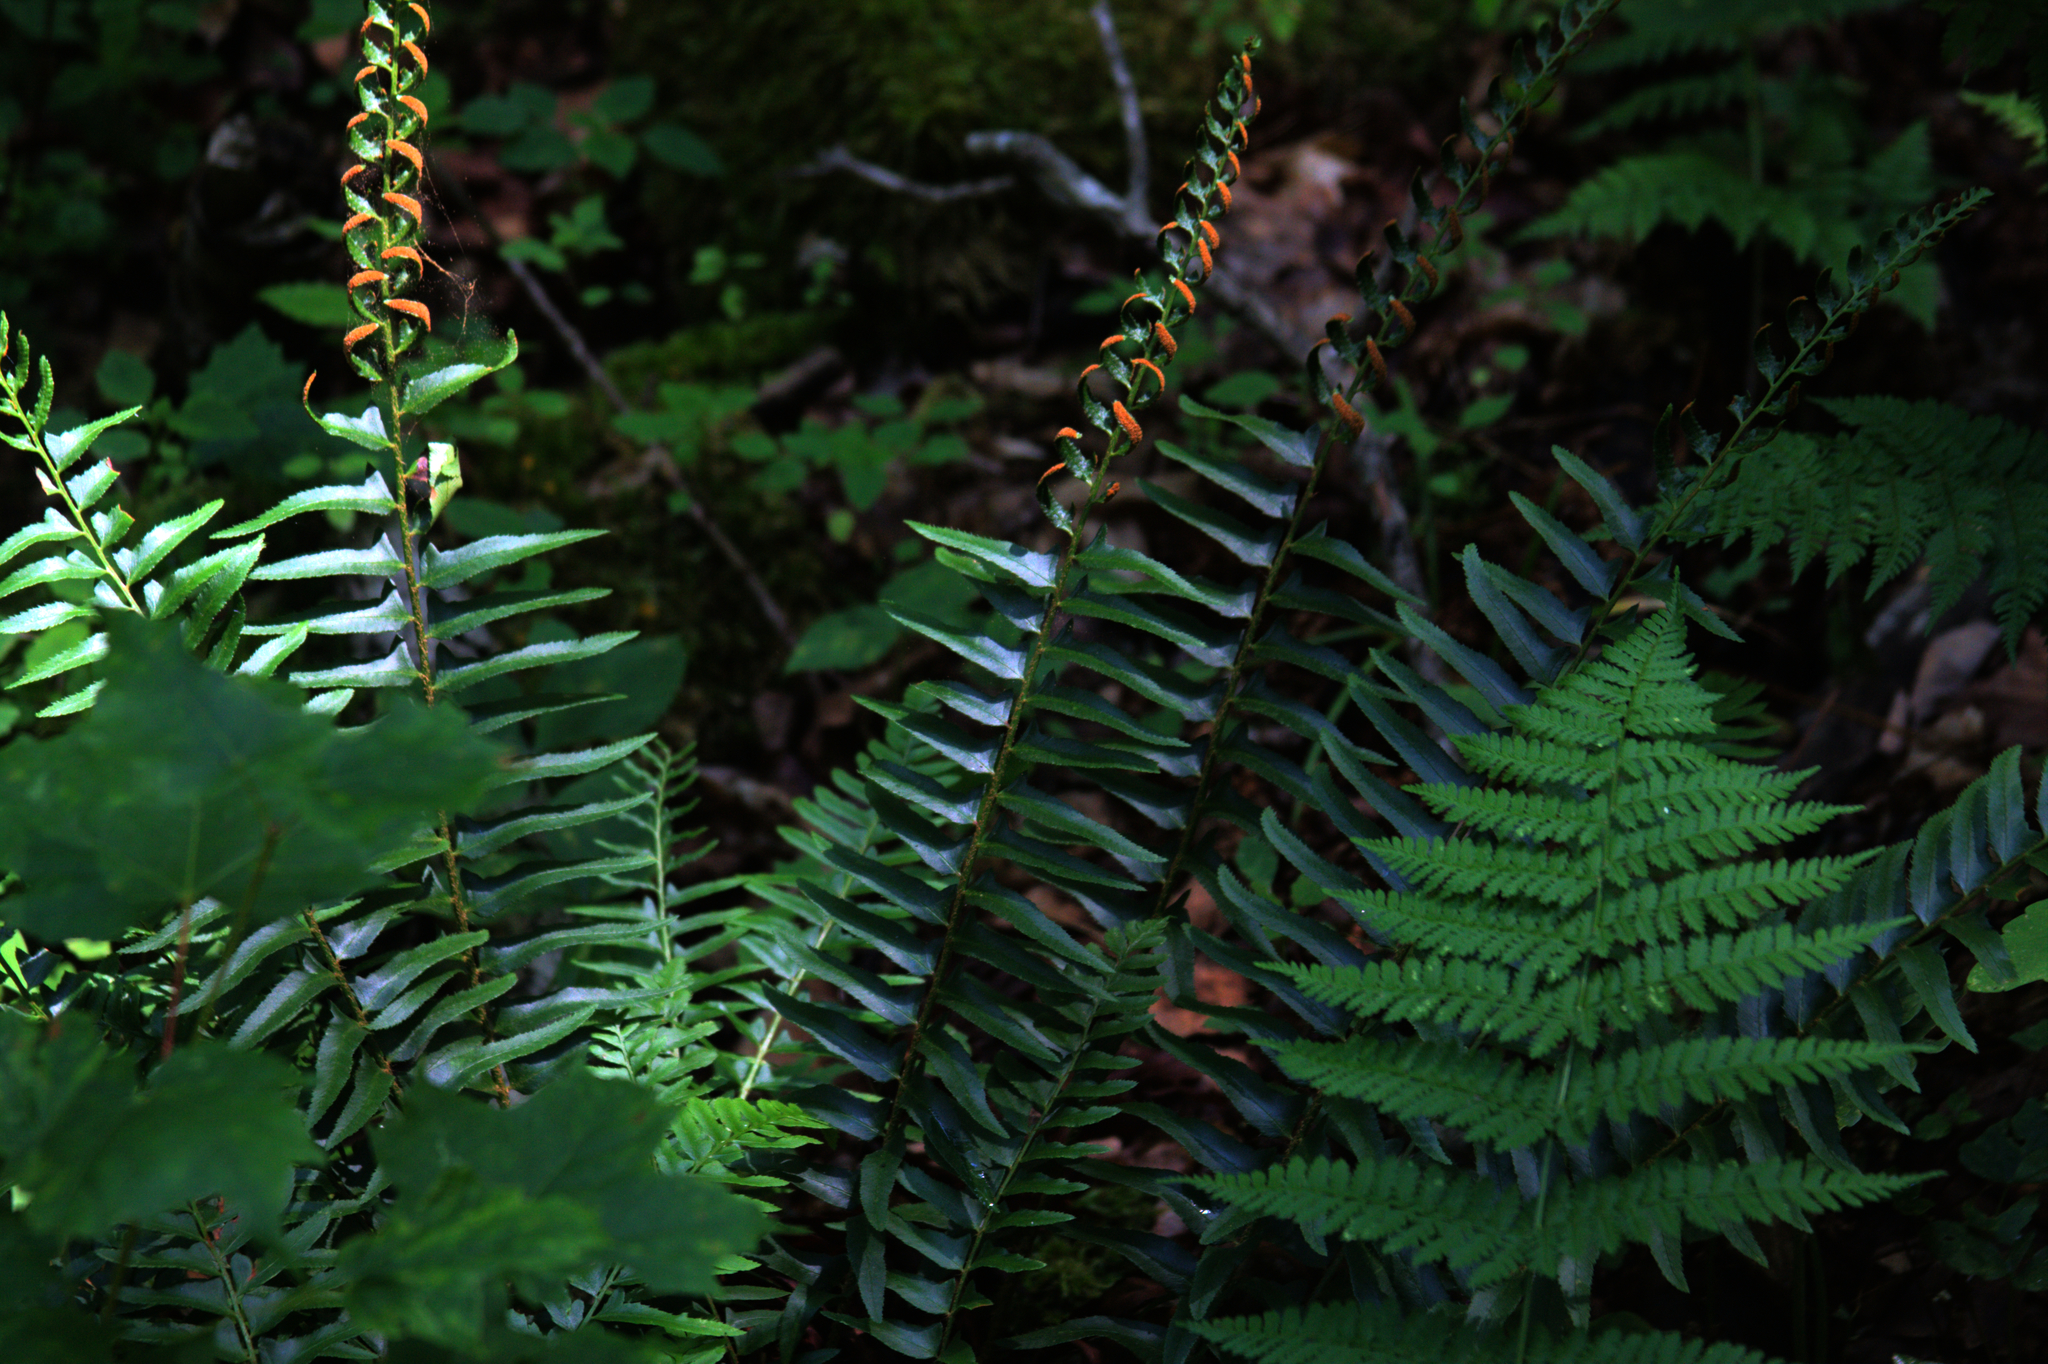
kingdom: Plantae
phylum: Tracheophyta
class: Polypodiopsida
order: Polypodiales
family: Dryopteridaceae
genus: Polystichum
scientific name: Polystichum acrostichoides
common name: Christmas fern
